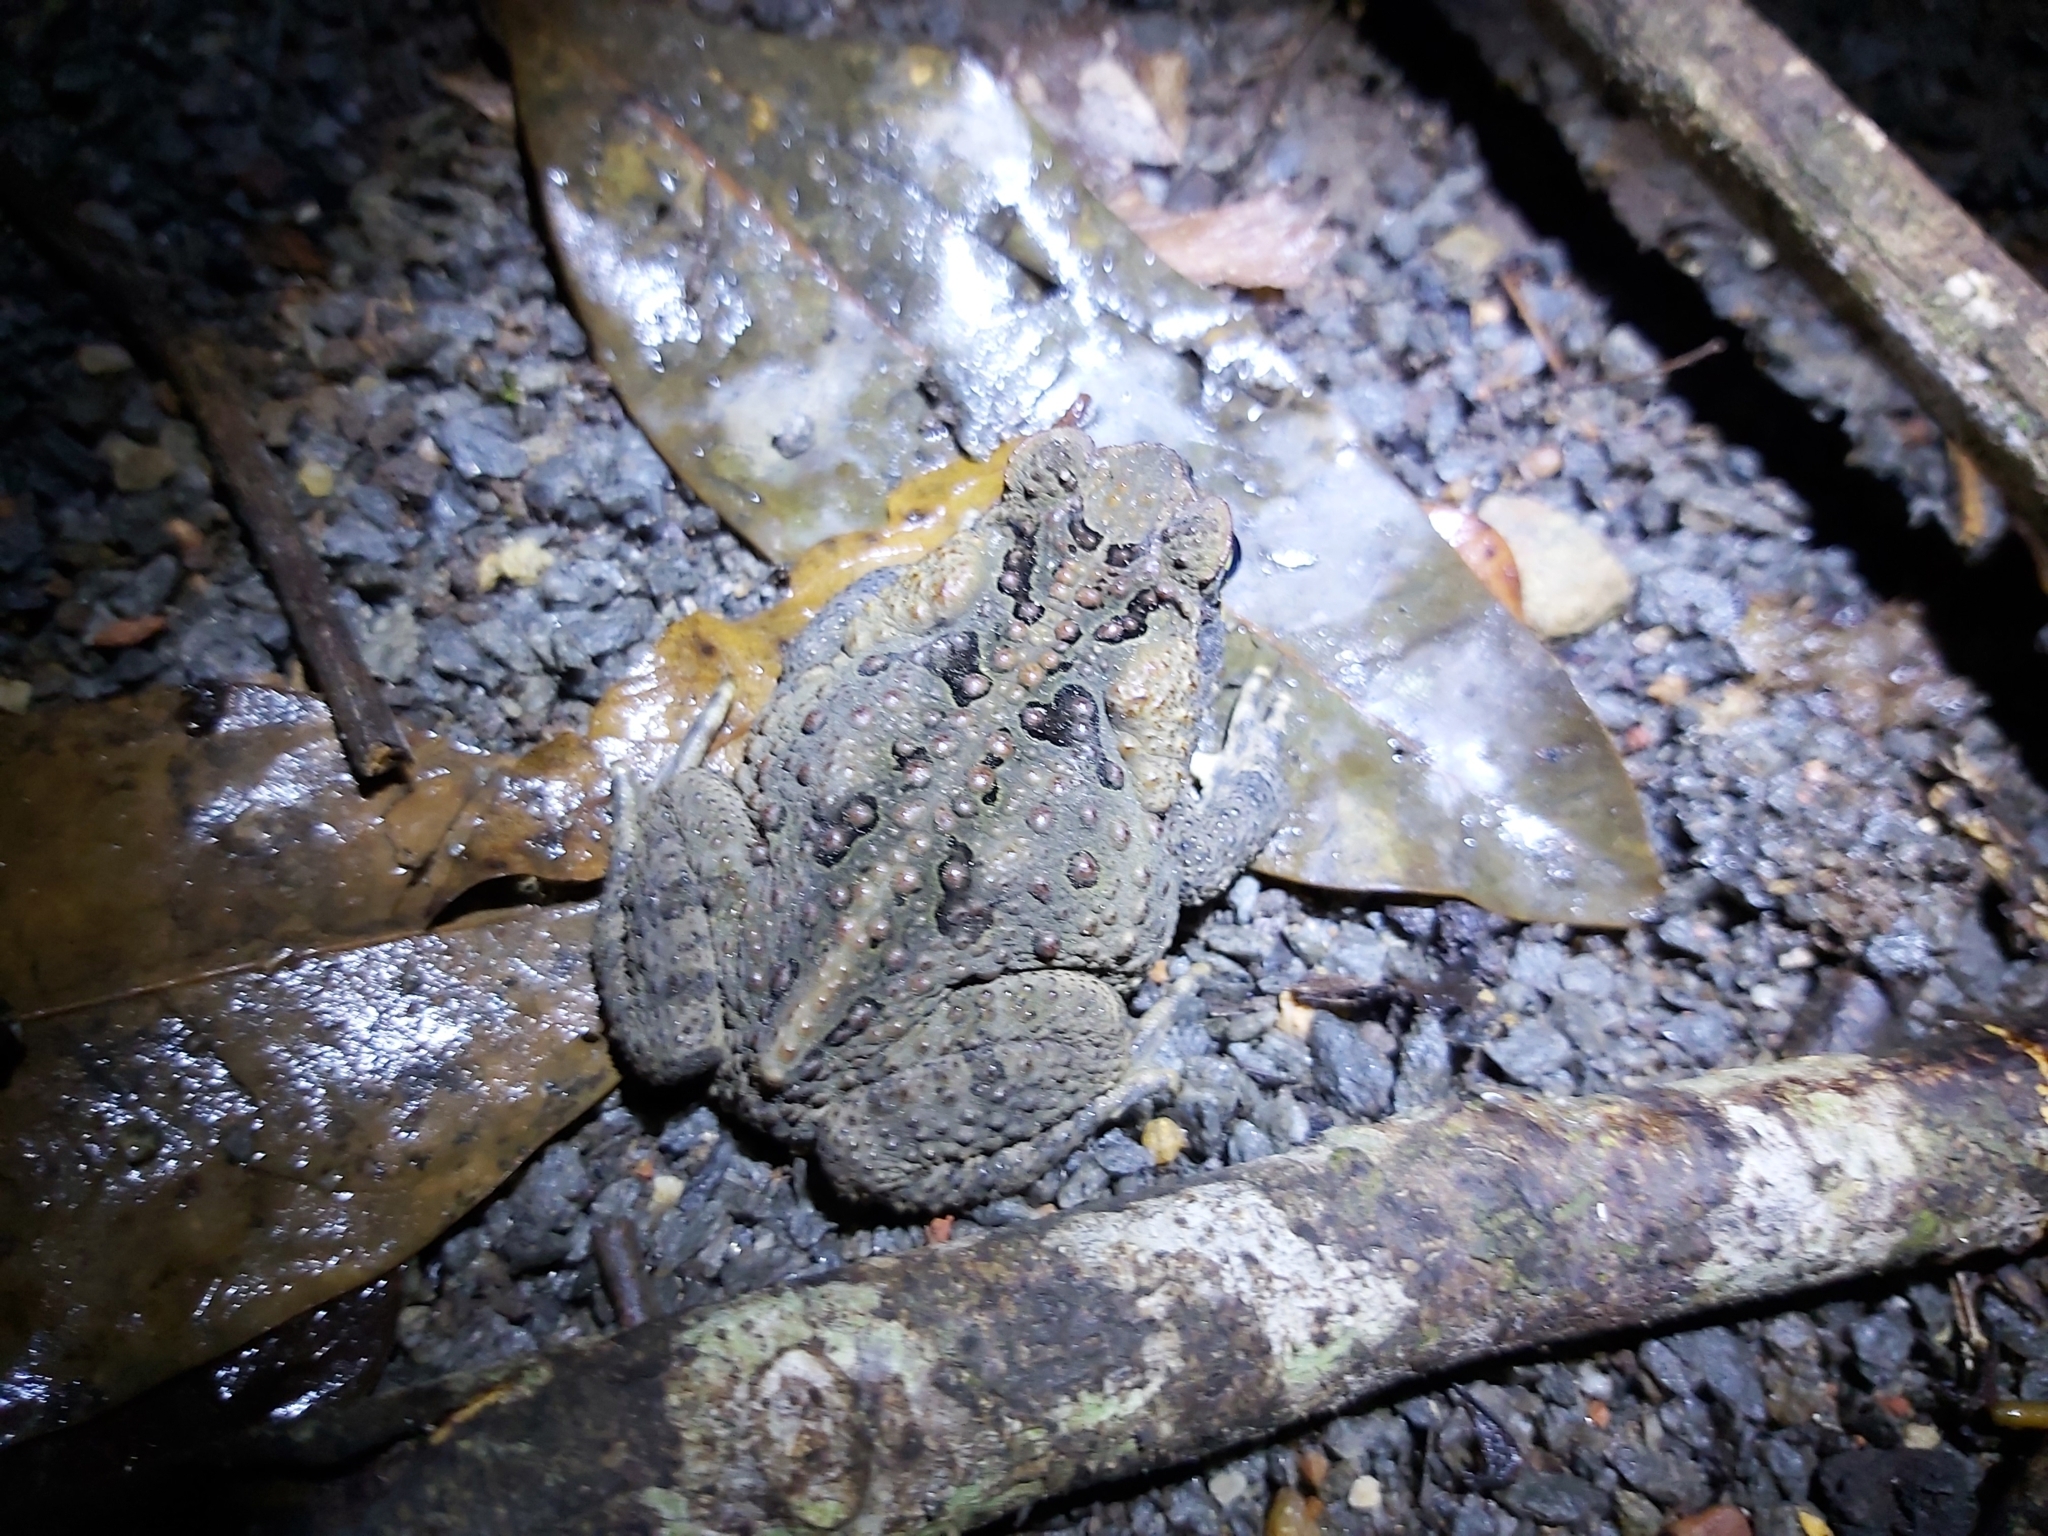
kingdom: Animalia
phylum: Chordata
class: Amphibia
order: Anura
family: Bufonidae
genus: Rhinella
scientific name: Rhinella marina
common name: Cane toad
